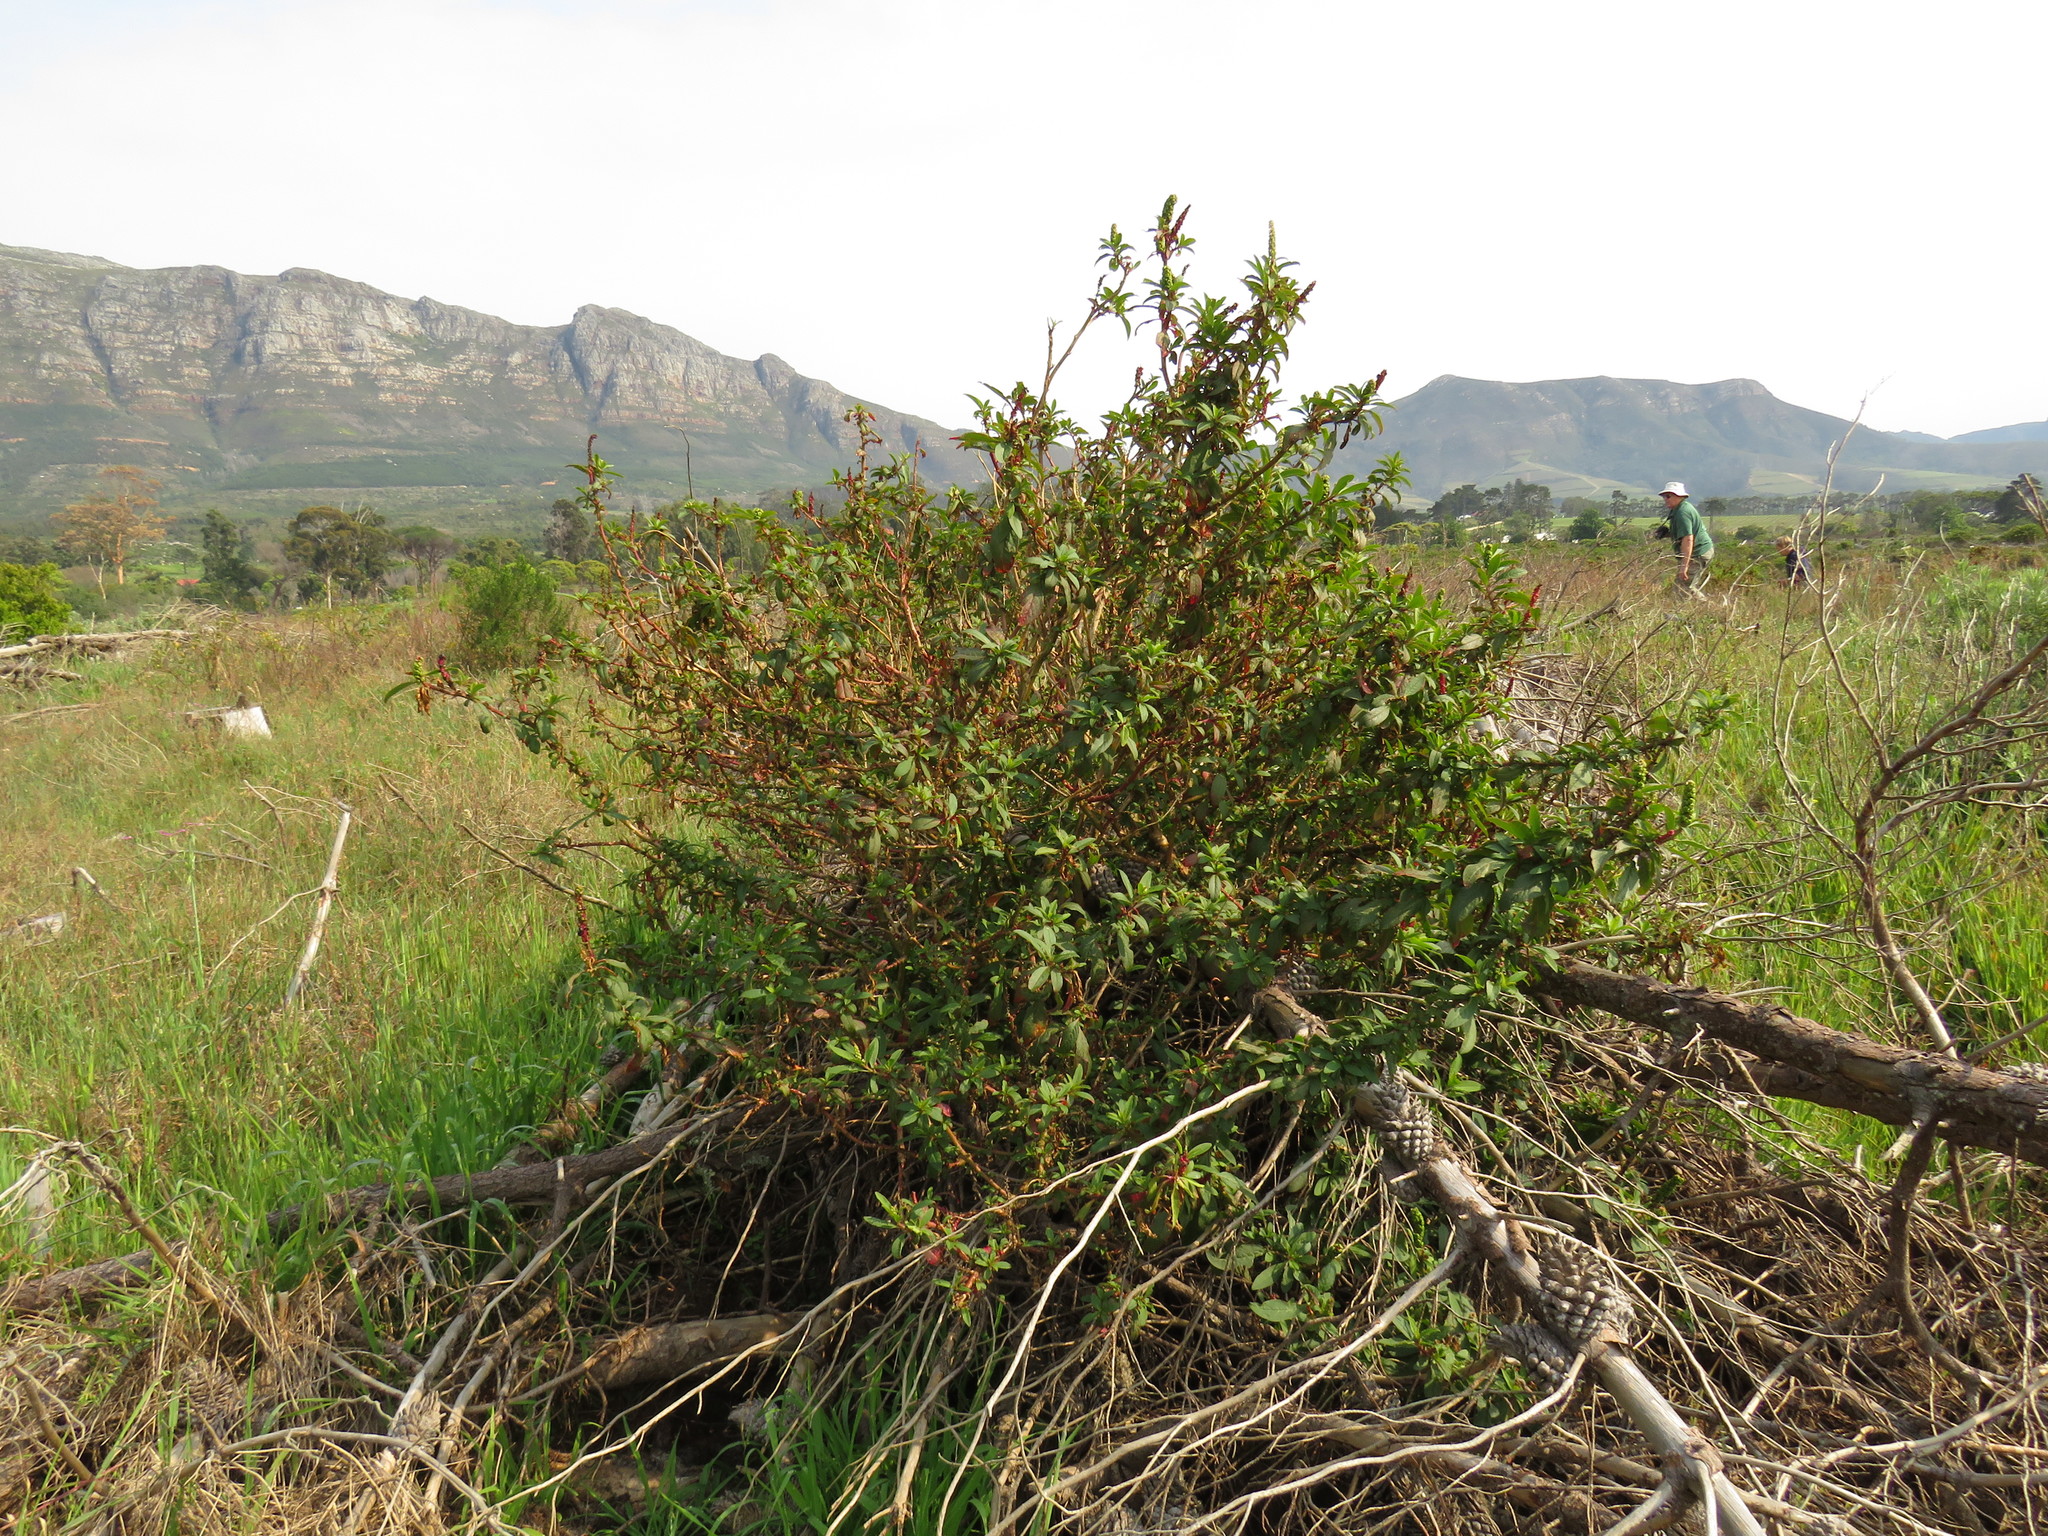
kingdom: Plantae
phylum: Tracheophyta
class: Magnoliopsida
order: Caryophyllales
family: Phytolaccaceae
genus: Phytolacca
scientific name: Phytolacca icosandra
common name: Button pokeweed
